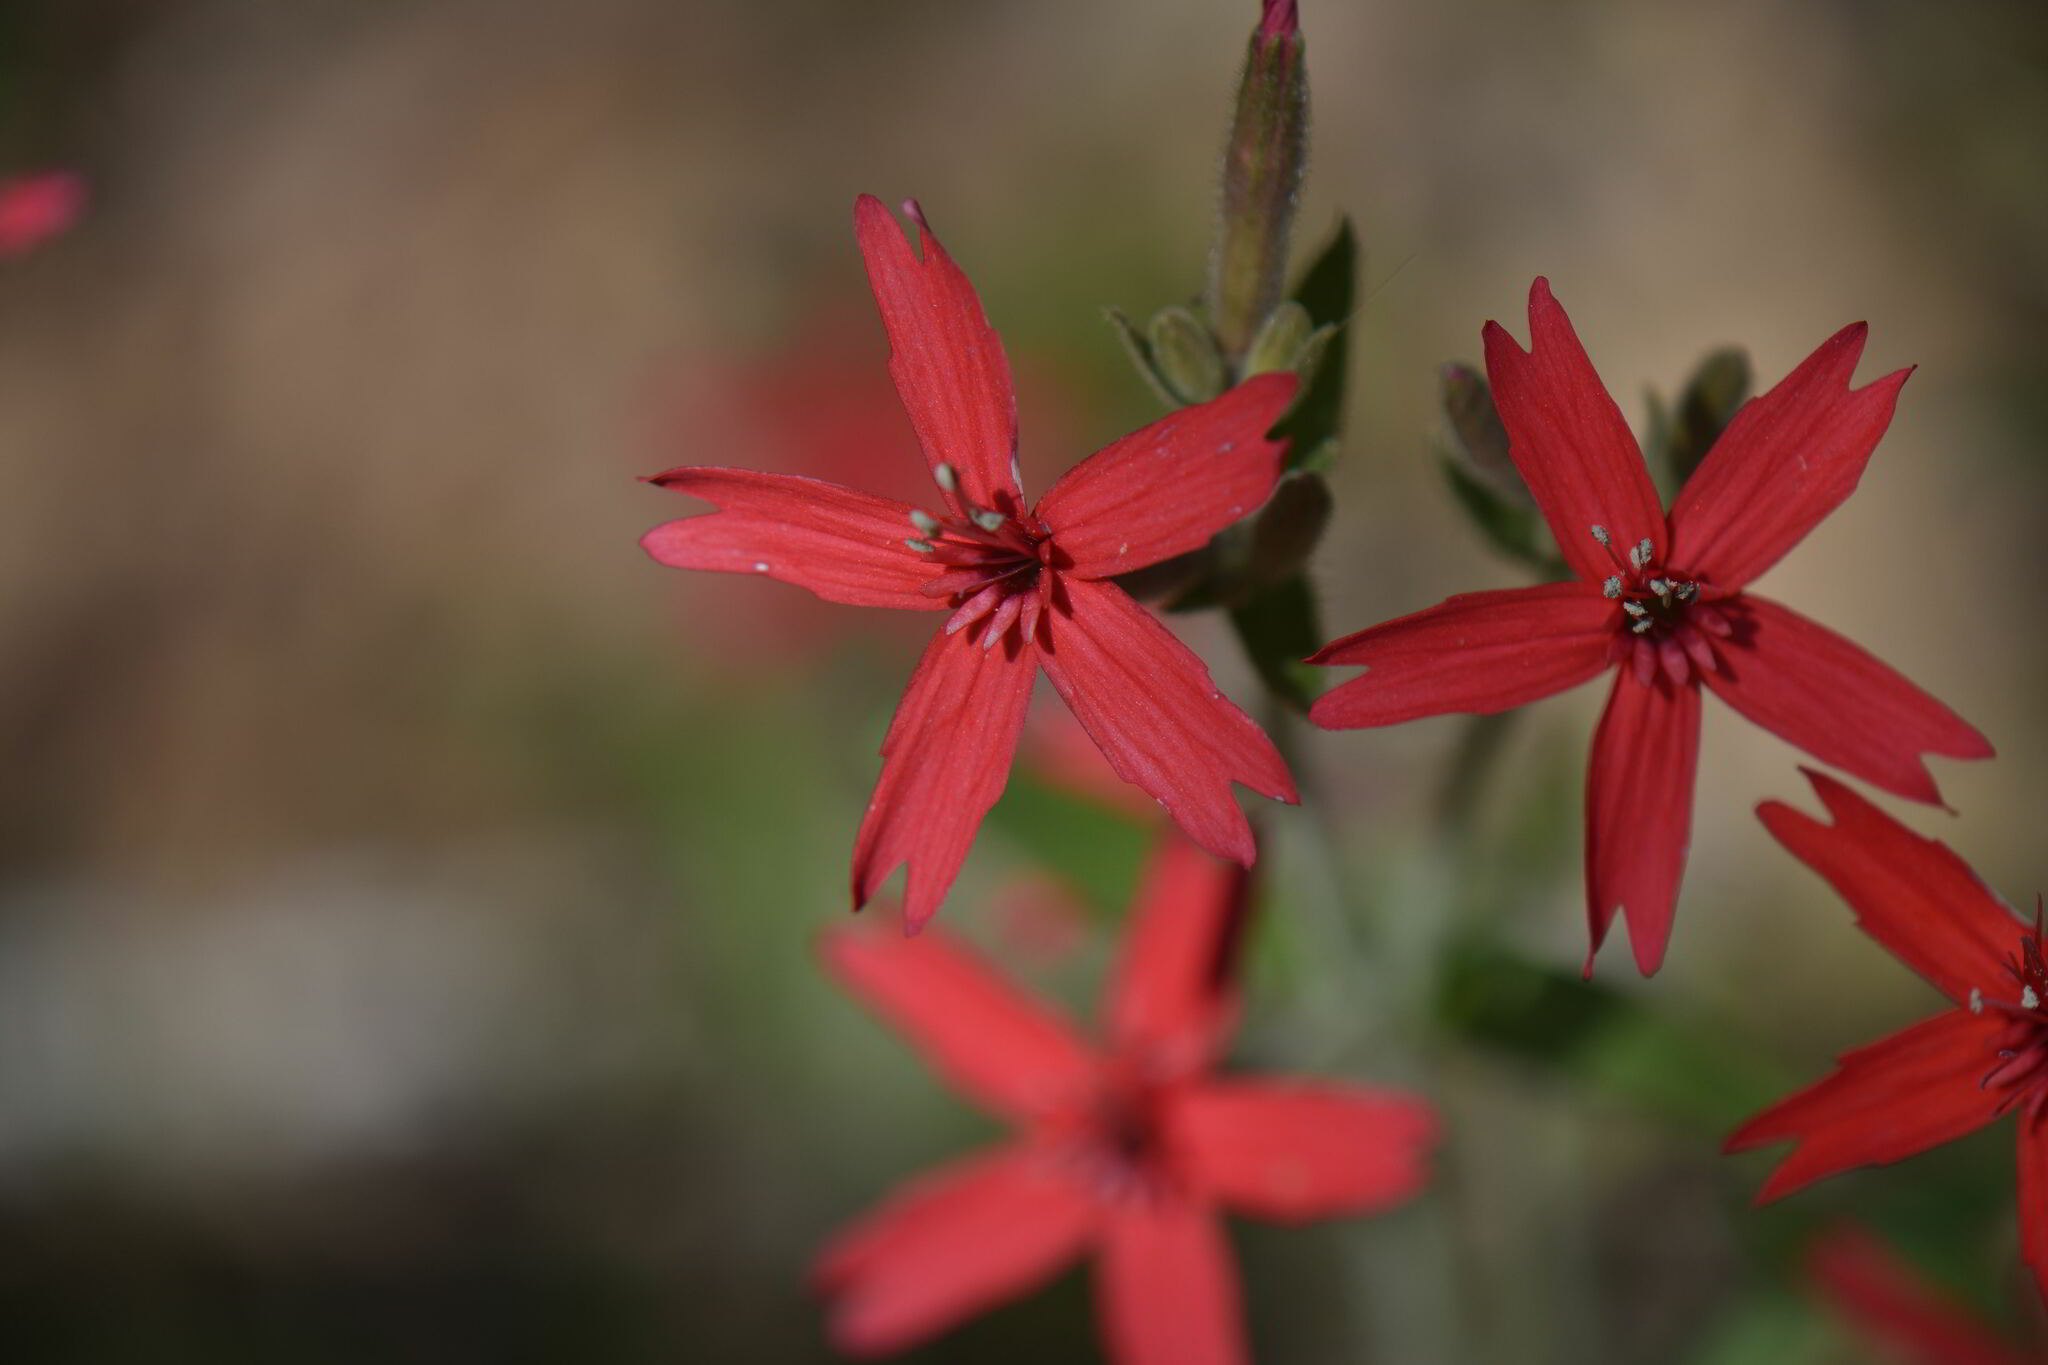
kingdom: Plantae
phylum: Tracheophyta
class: Magnoliopsida
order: Caryophyllales
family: Caryophyllaceae
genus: Silene
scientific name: Silene virginica
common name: Fire-pink
